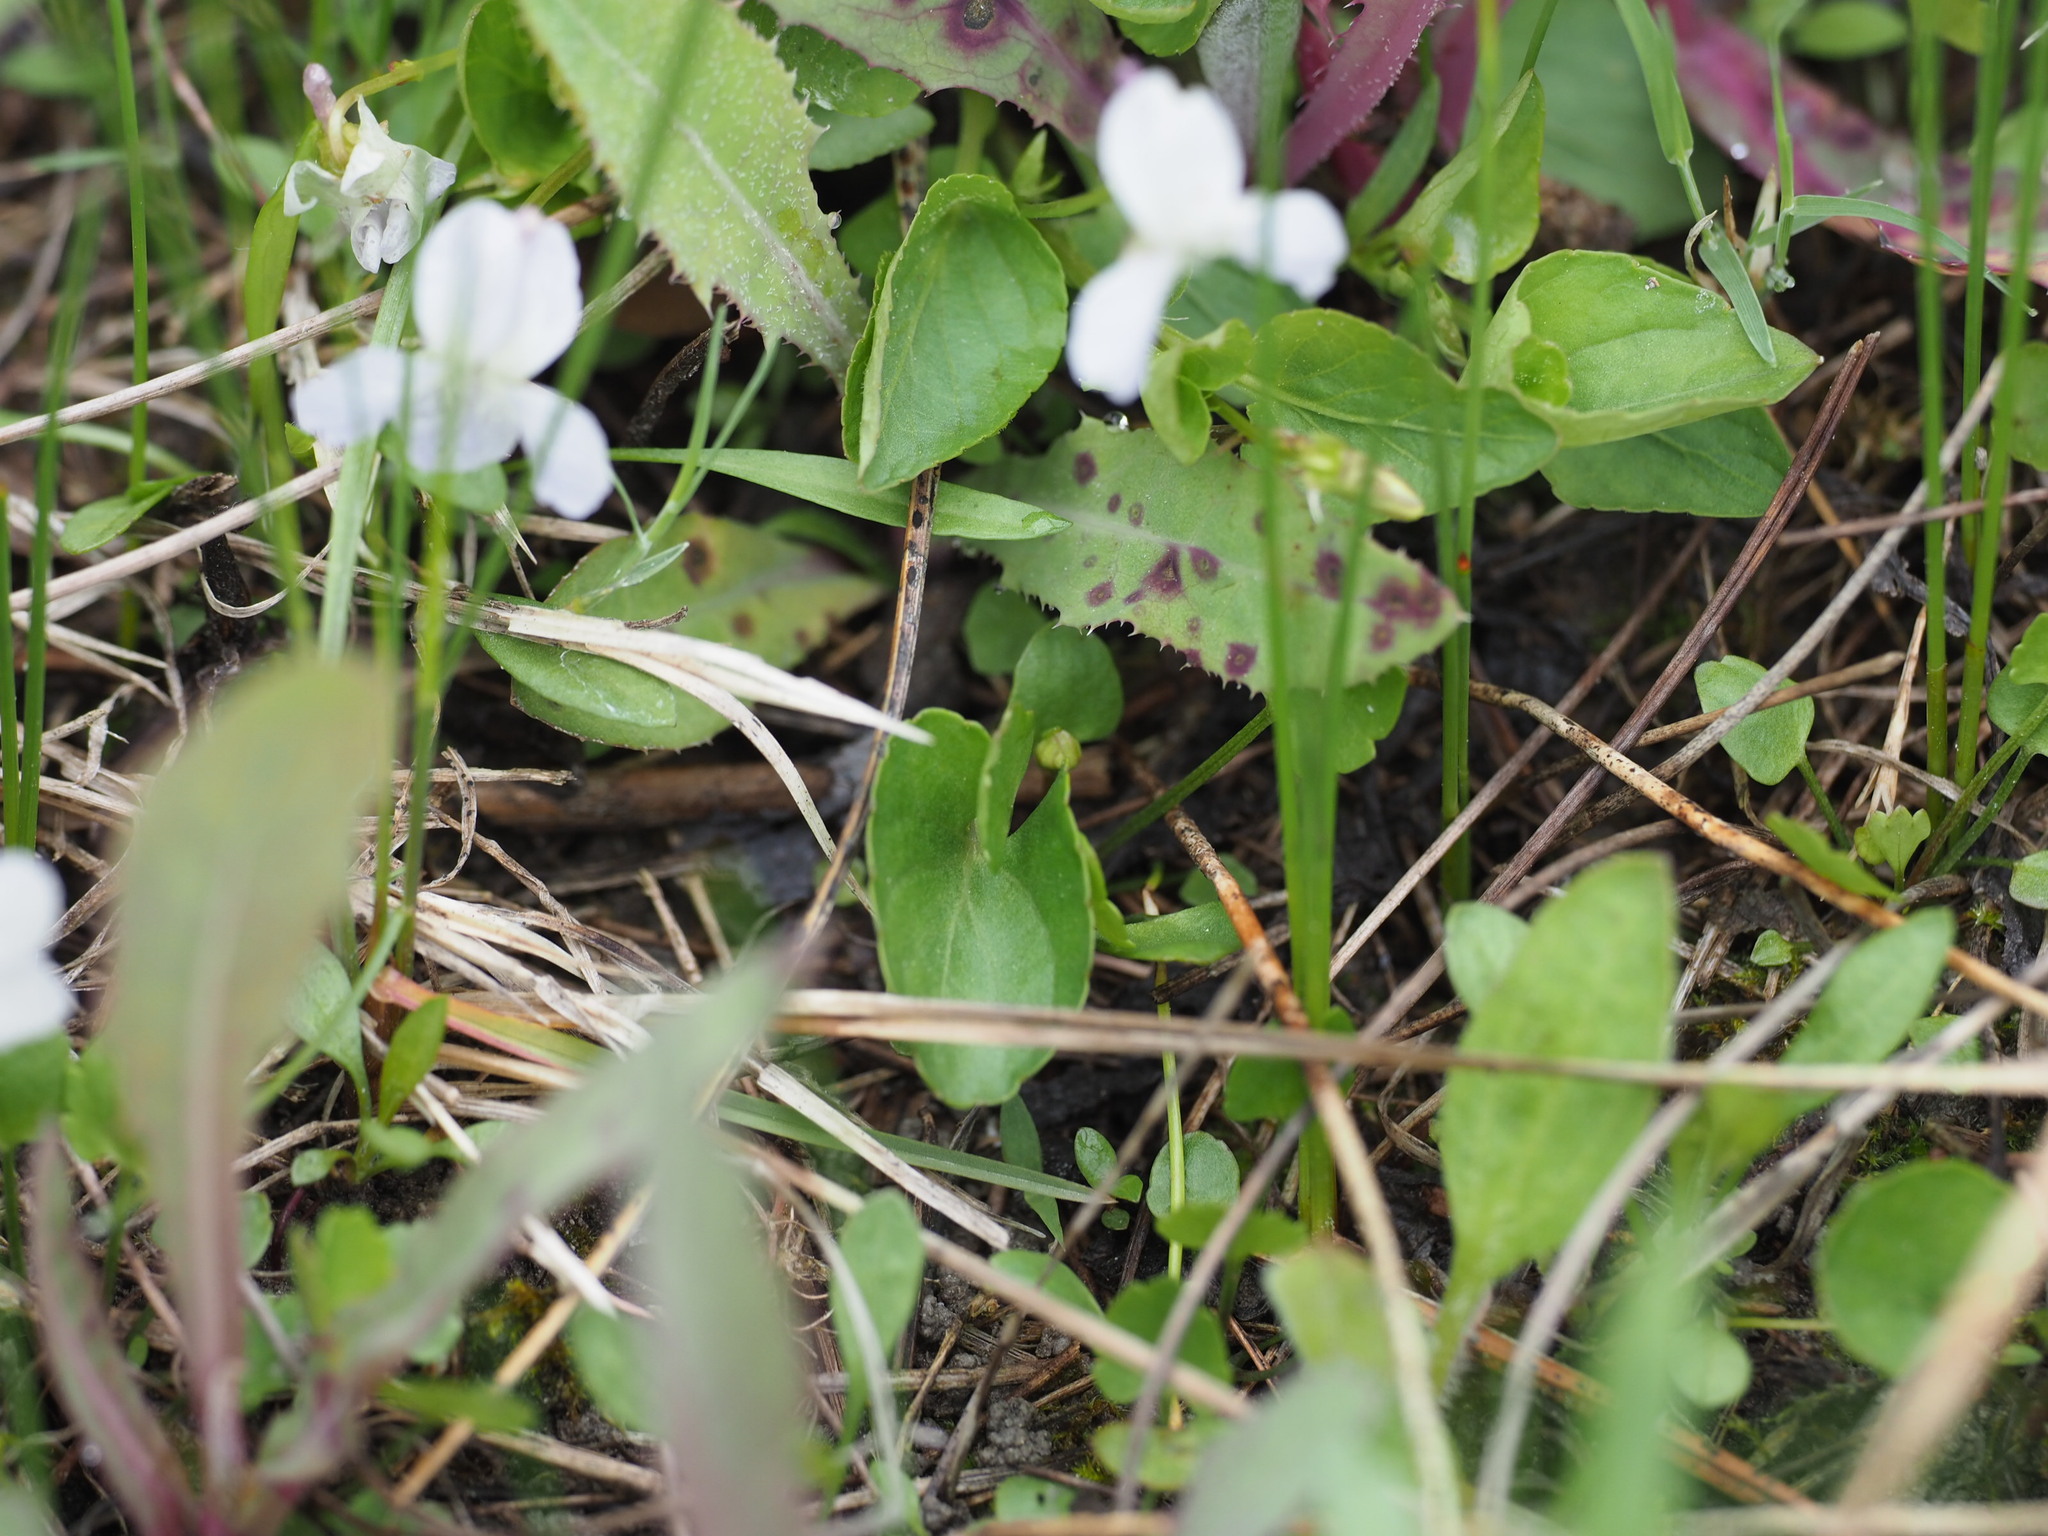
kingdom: Plantae
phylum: Tracheophyta
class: Magnoliopsida
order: Malpighiales
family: Violaceae
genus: Viola
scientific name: Viola adunca
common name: Sand violet
